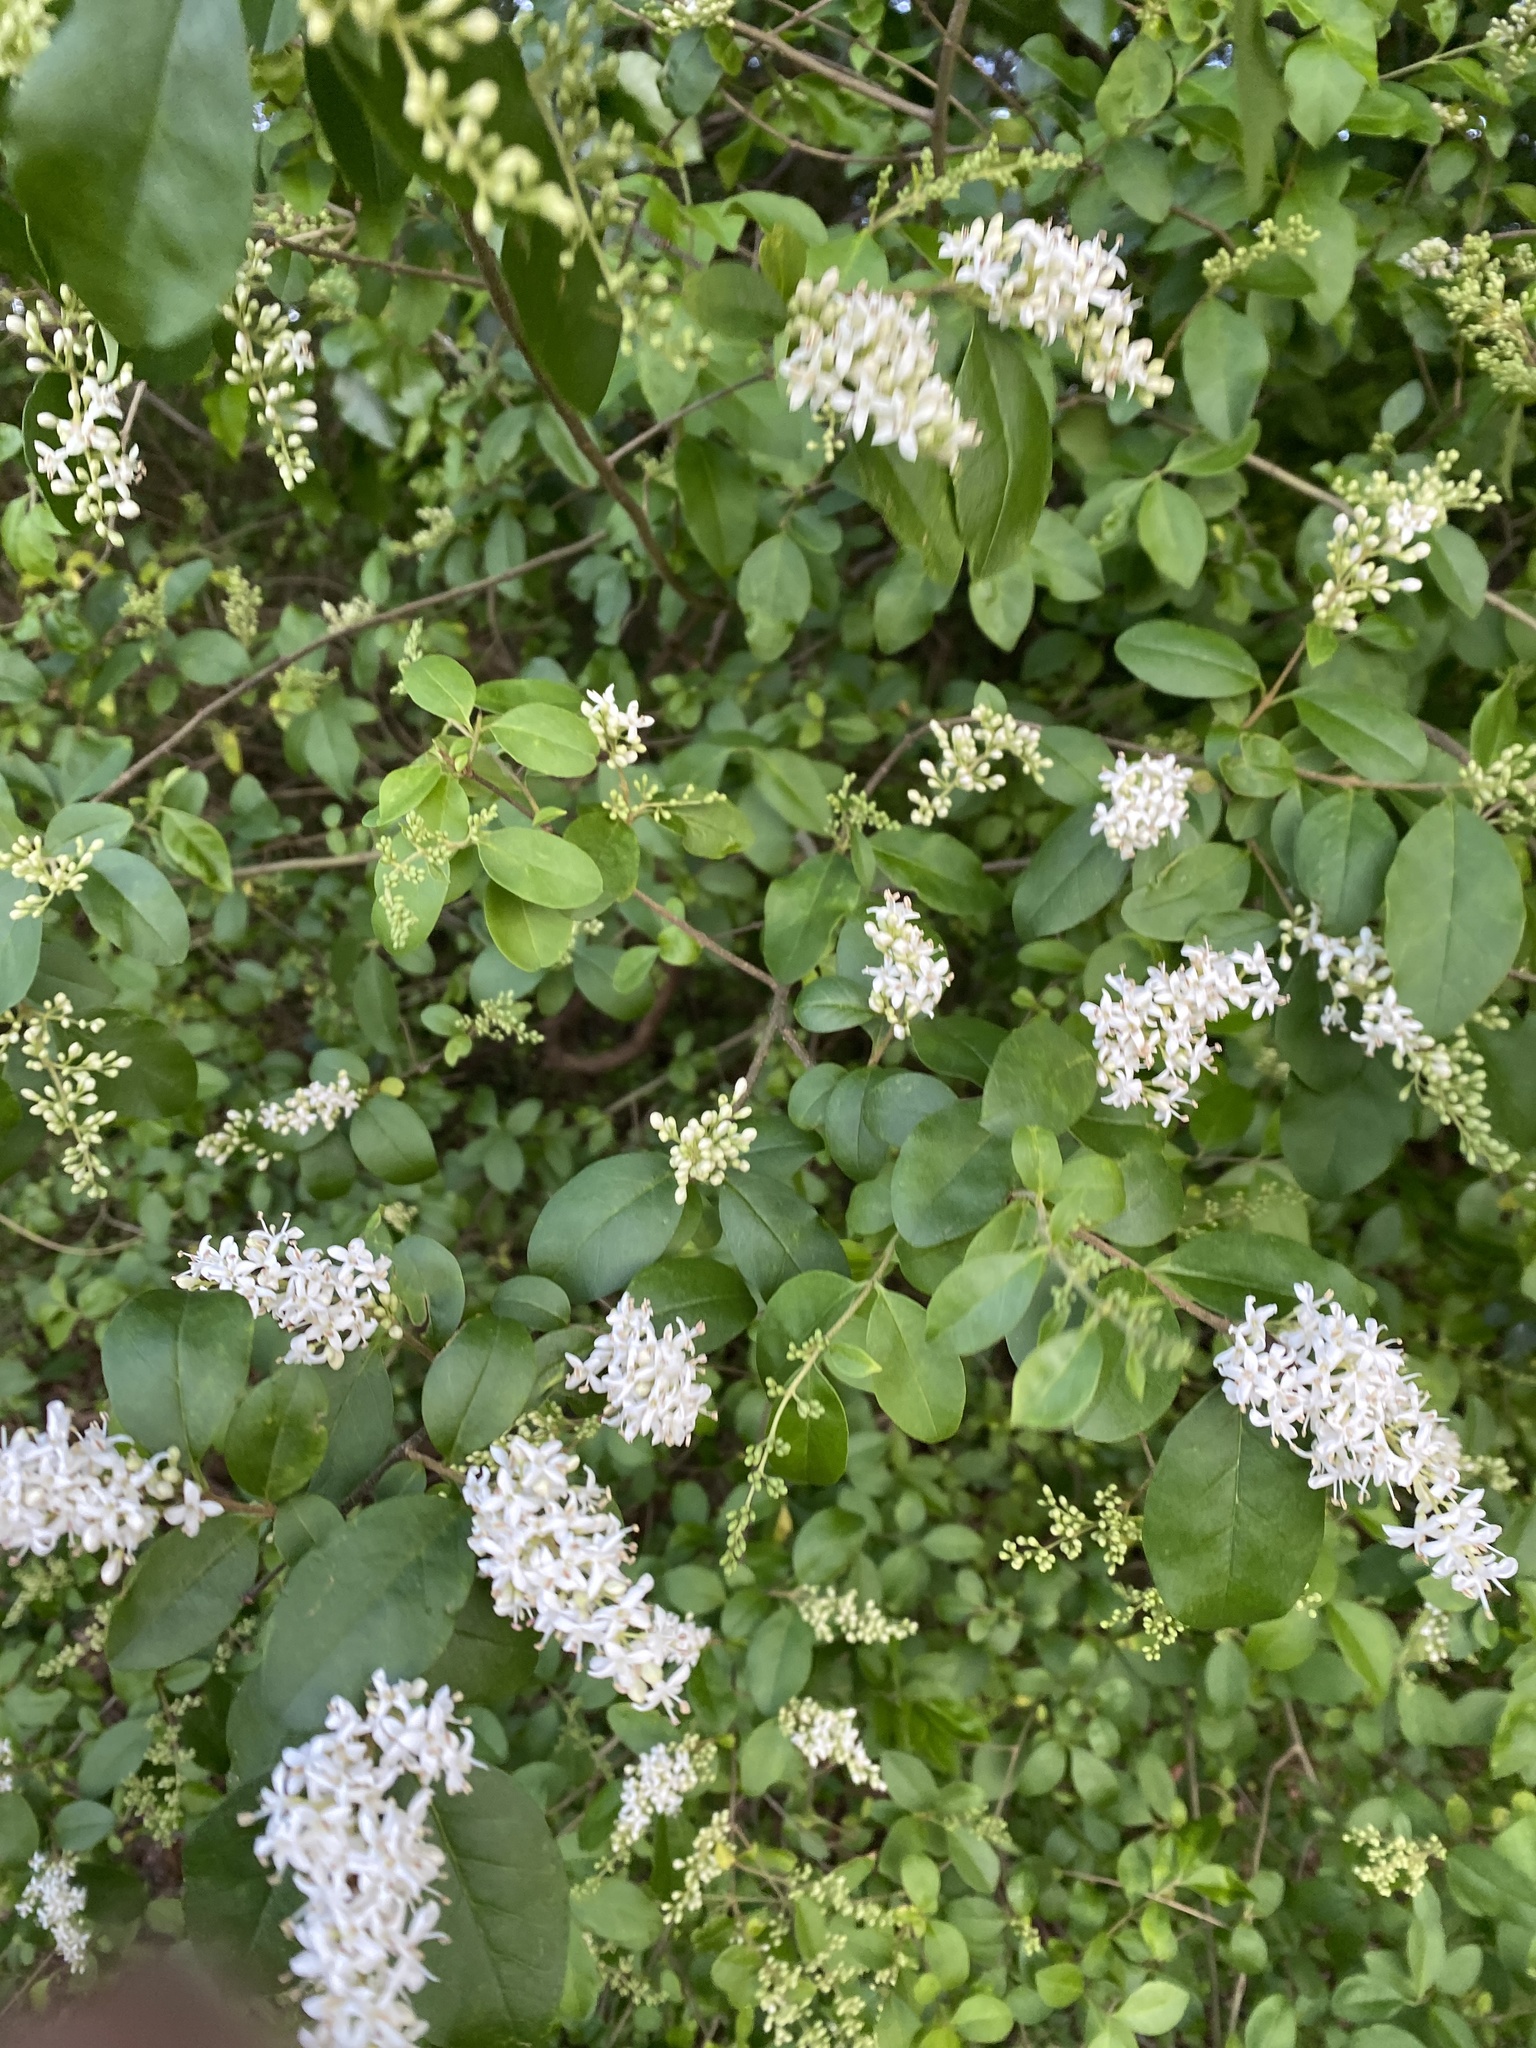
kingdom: Plantae
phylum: Tracheophyta
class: Magnoliopsida
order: Lamiales
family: Oleaceae
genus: Ligustrum
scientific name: Ligustrum sinense
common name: Chinese privet
